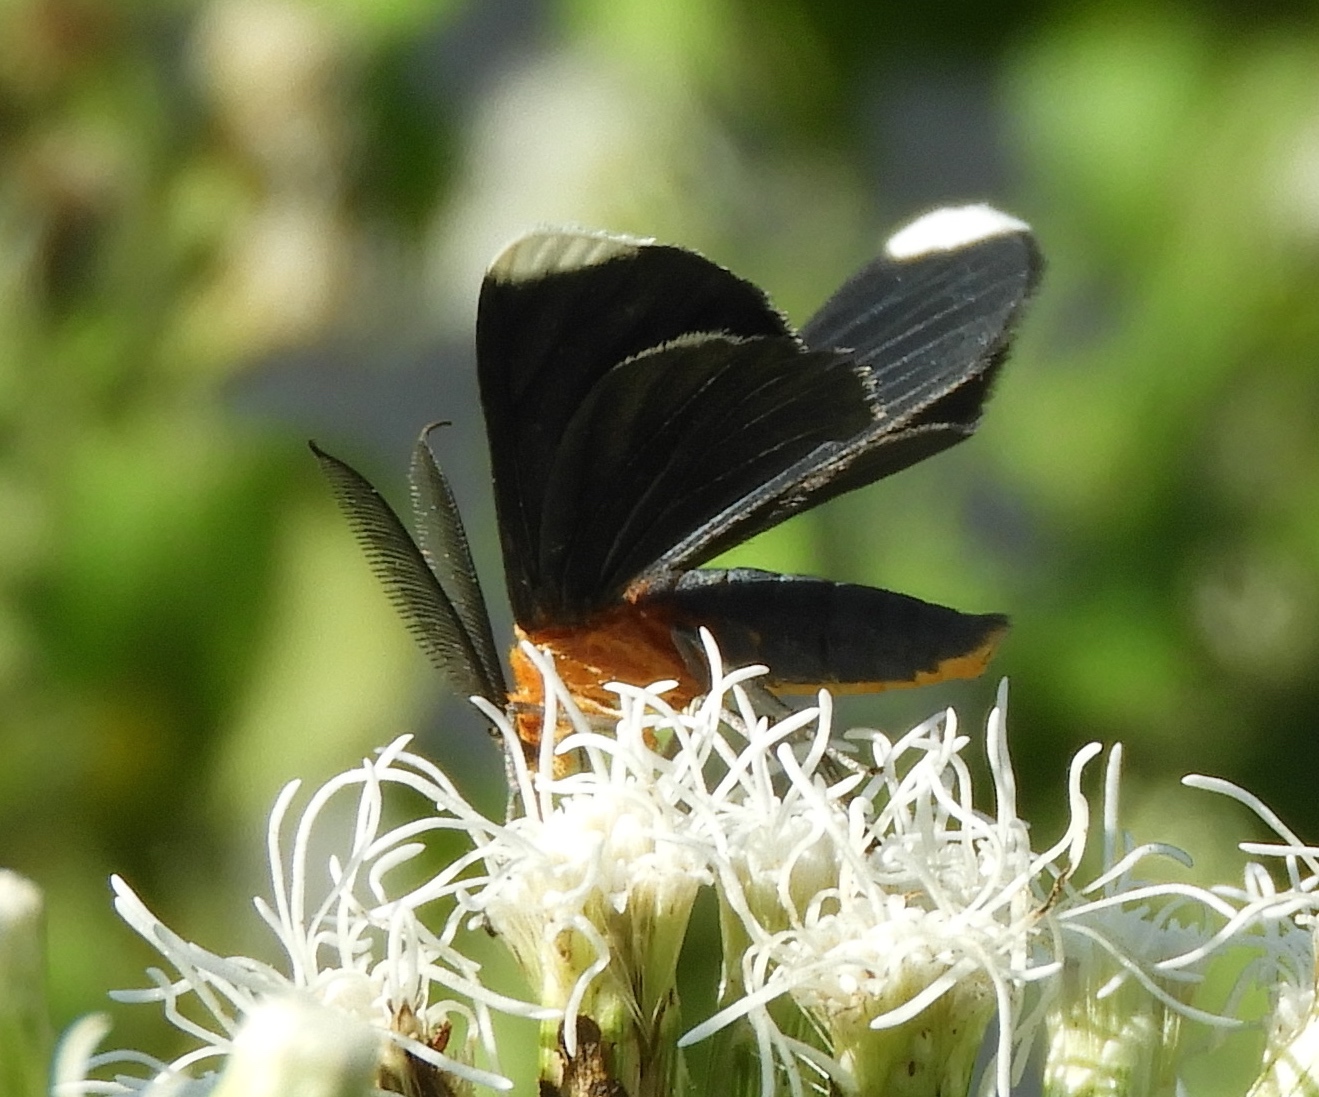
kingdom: Animalia
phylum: Arthropoda
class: Insecta
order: Lepidoptera
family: Geometridae
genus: Melanchroia
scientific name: Melanchroia chephise
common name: White-tipped black
